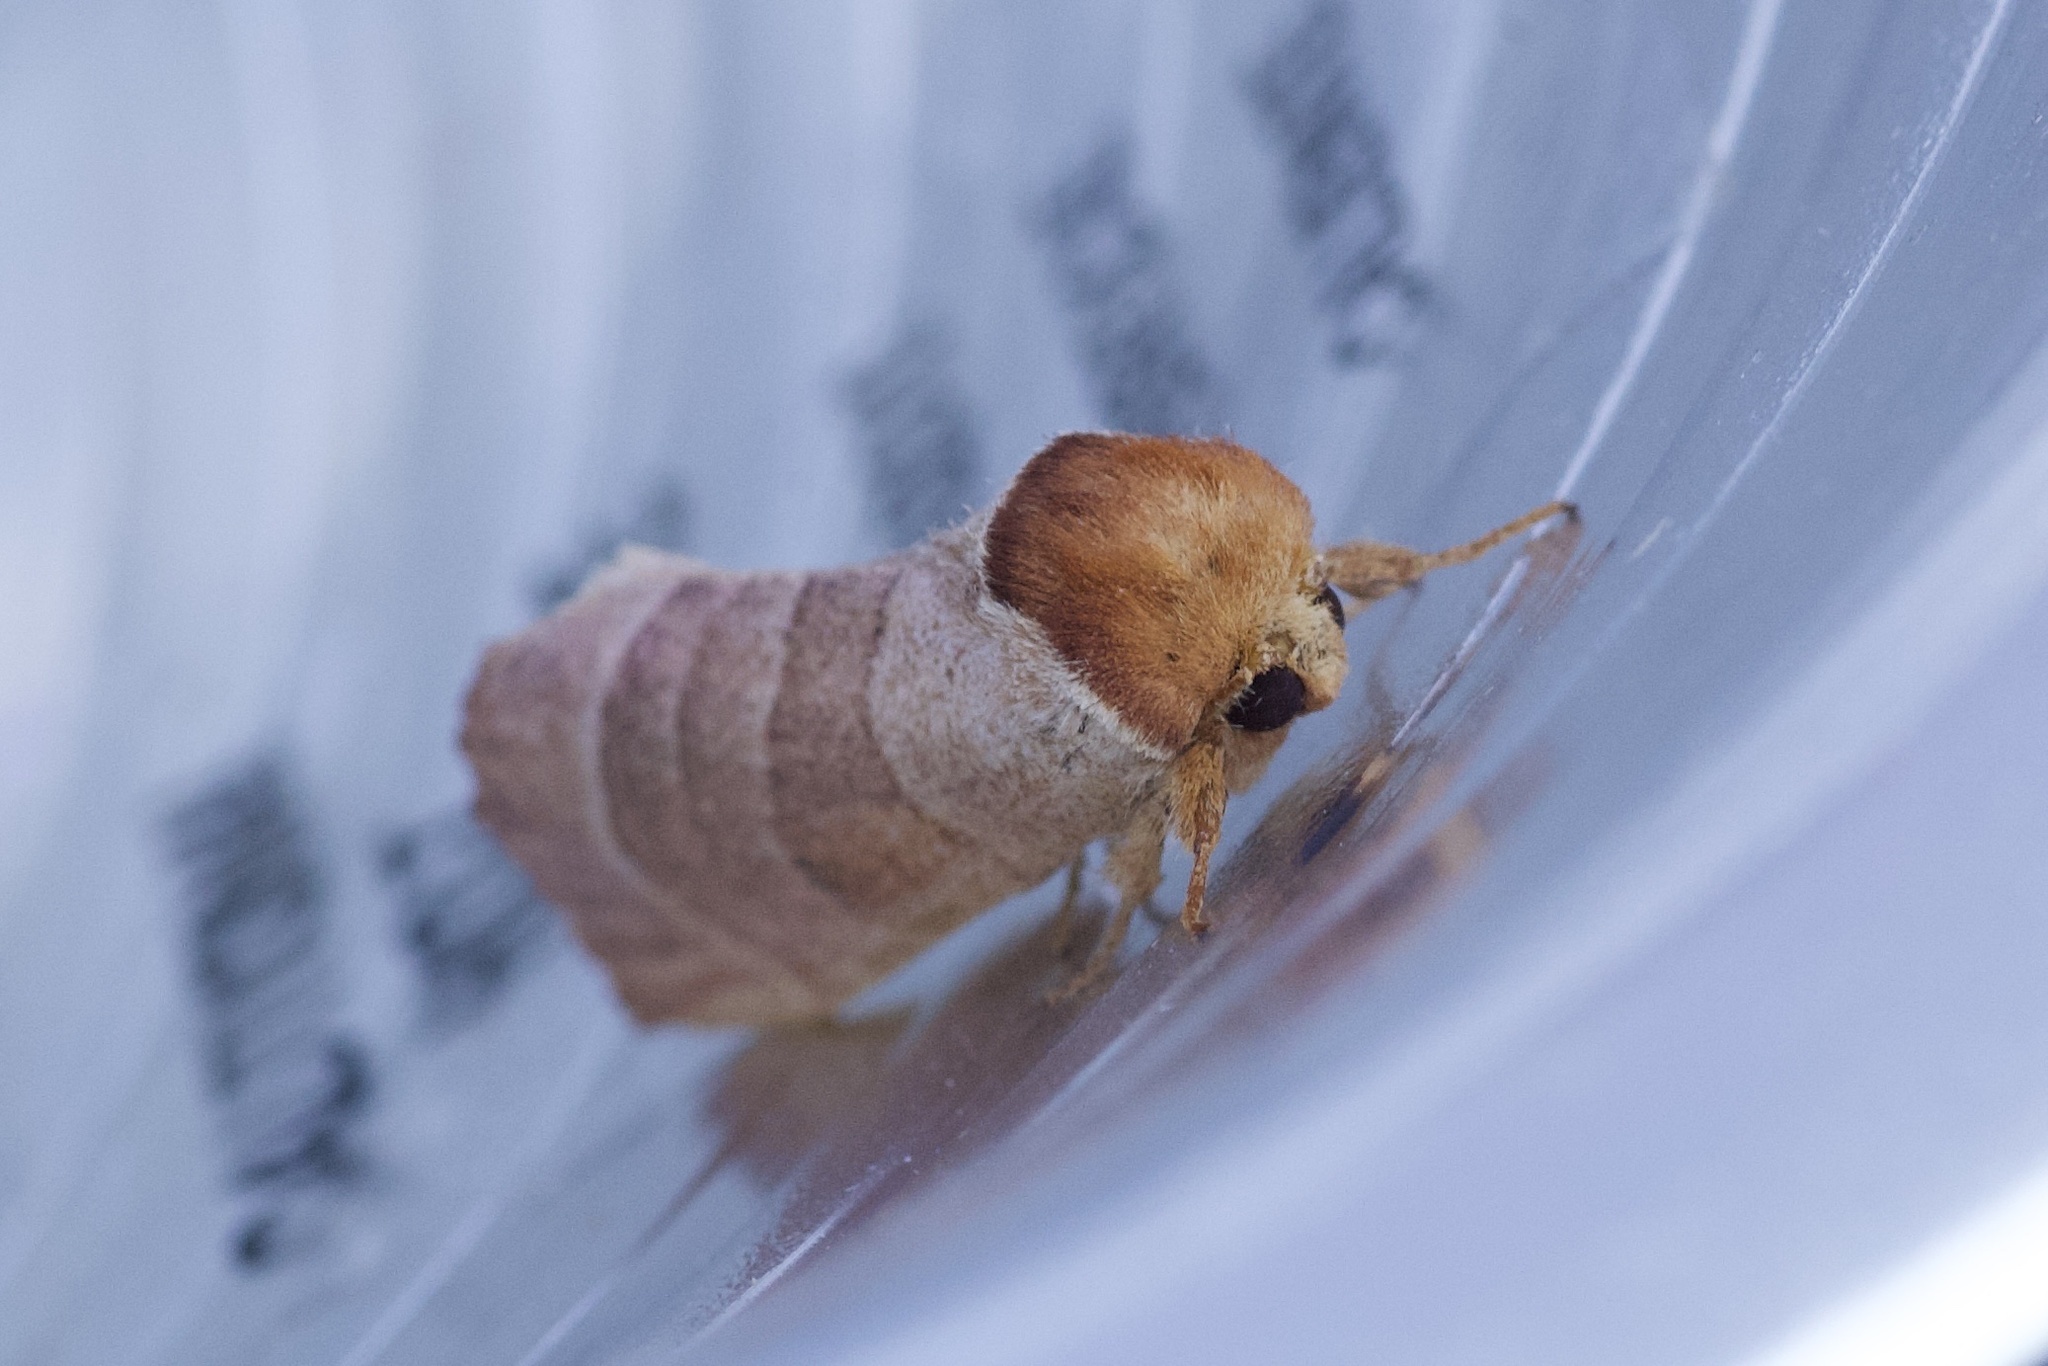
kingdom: Animalia
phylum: Arthropoda
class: Insecta
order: Lepidoptera
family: Notodontidae
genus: Datana
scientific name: Datana integerrima
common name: Walnut caterpillar
